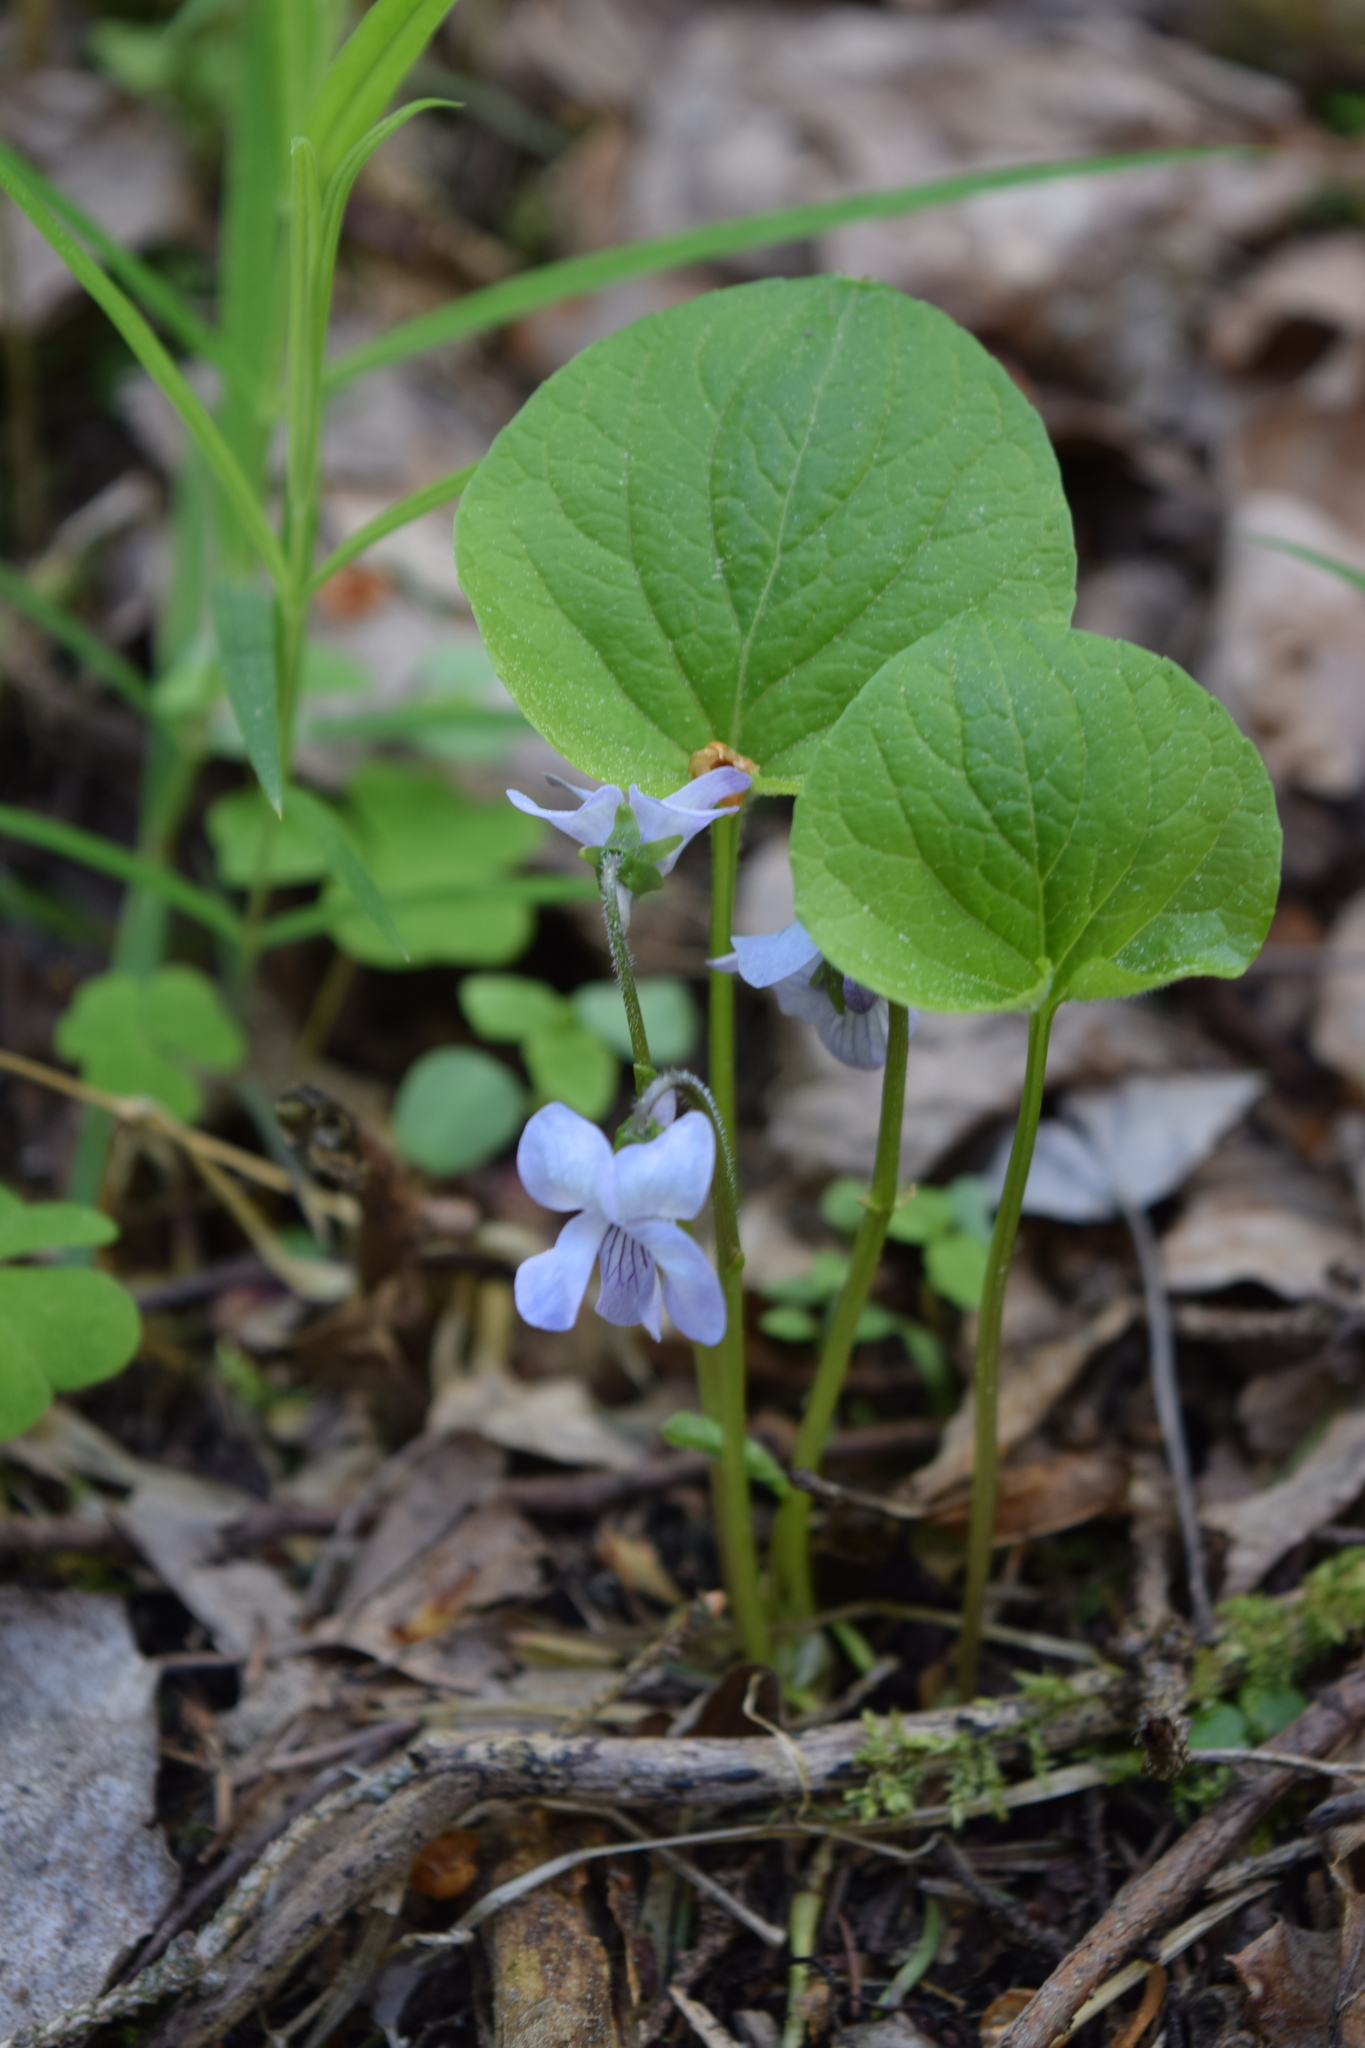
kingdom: Plantae
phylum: Tracheophyta
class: Magnoliopsida
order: Malpighiales
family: Violaceae
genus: Viola
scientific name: Viola mirabilis
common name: Wonder violet
